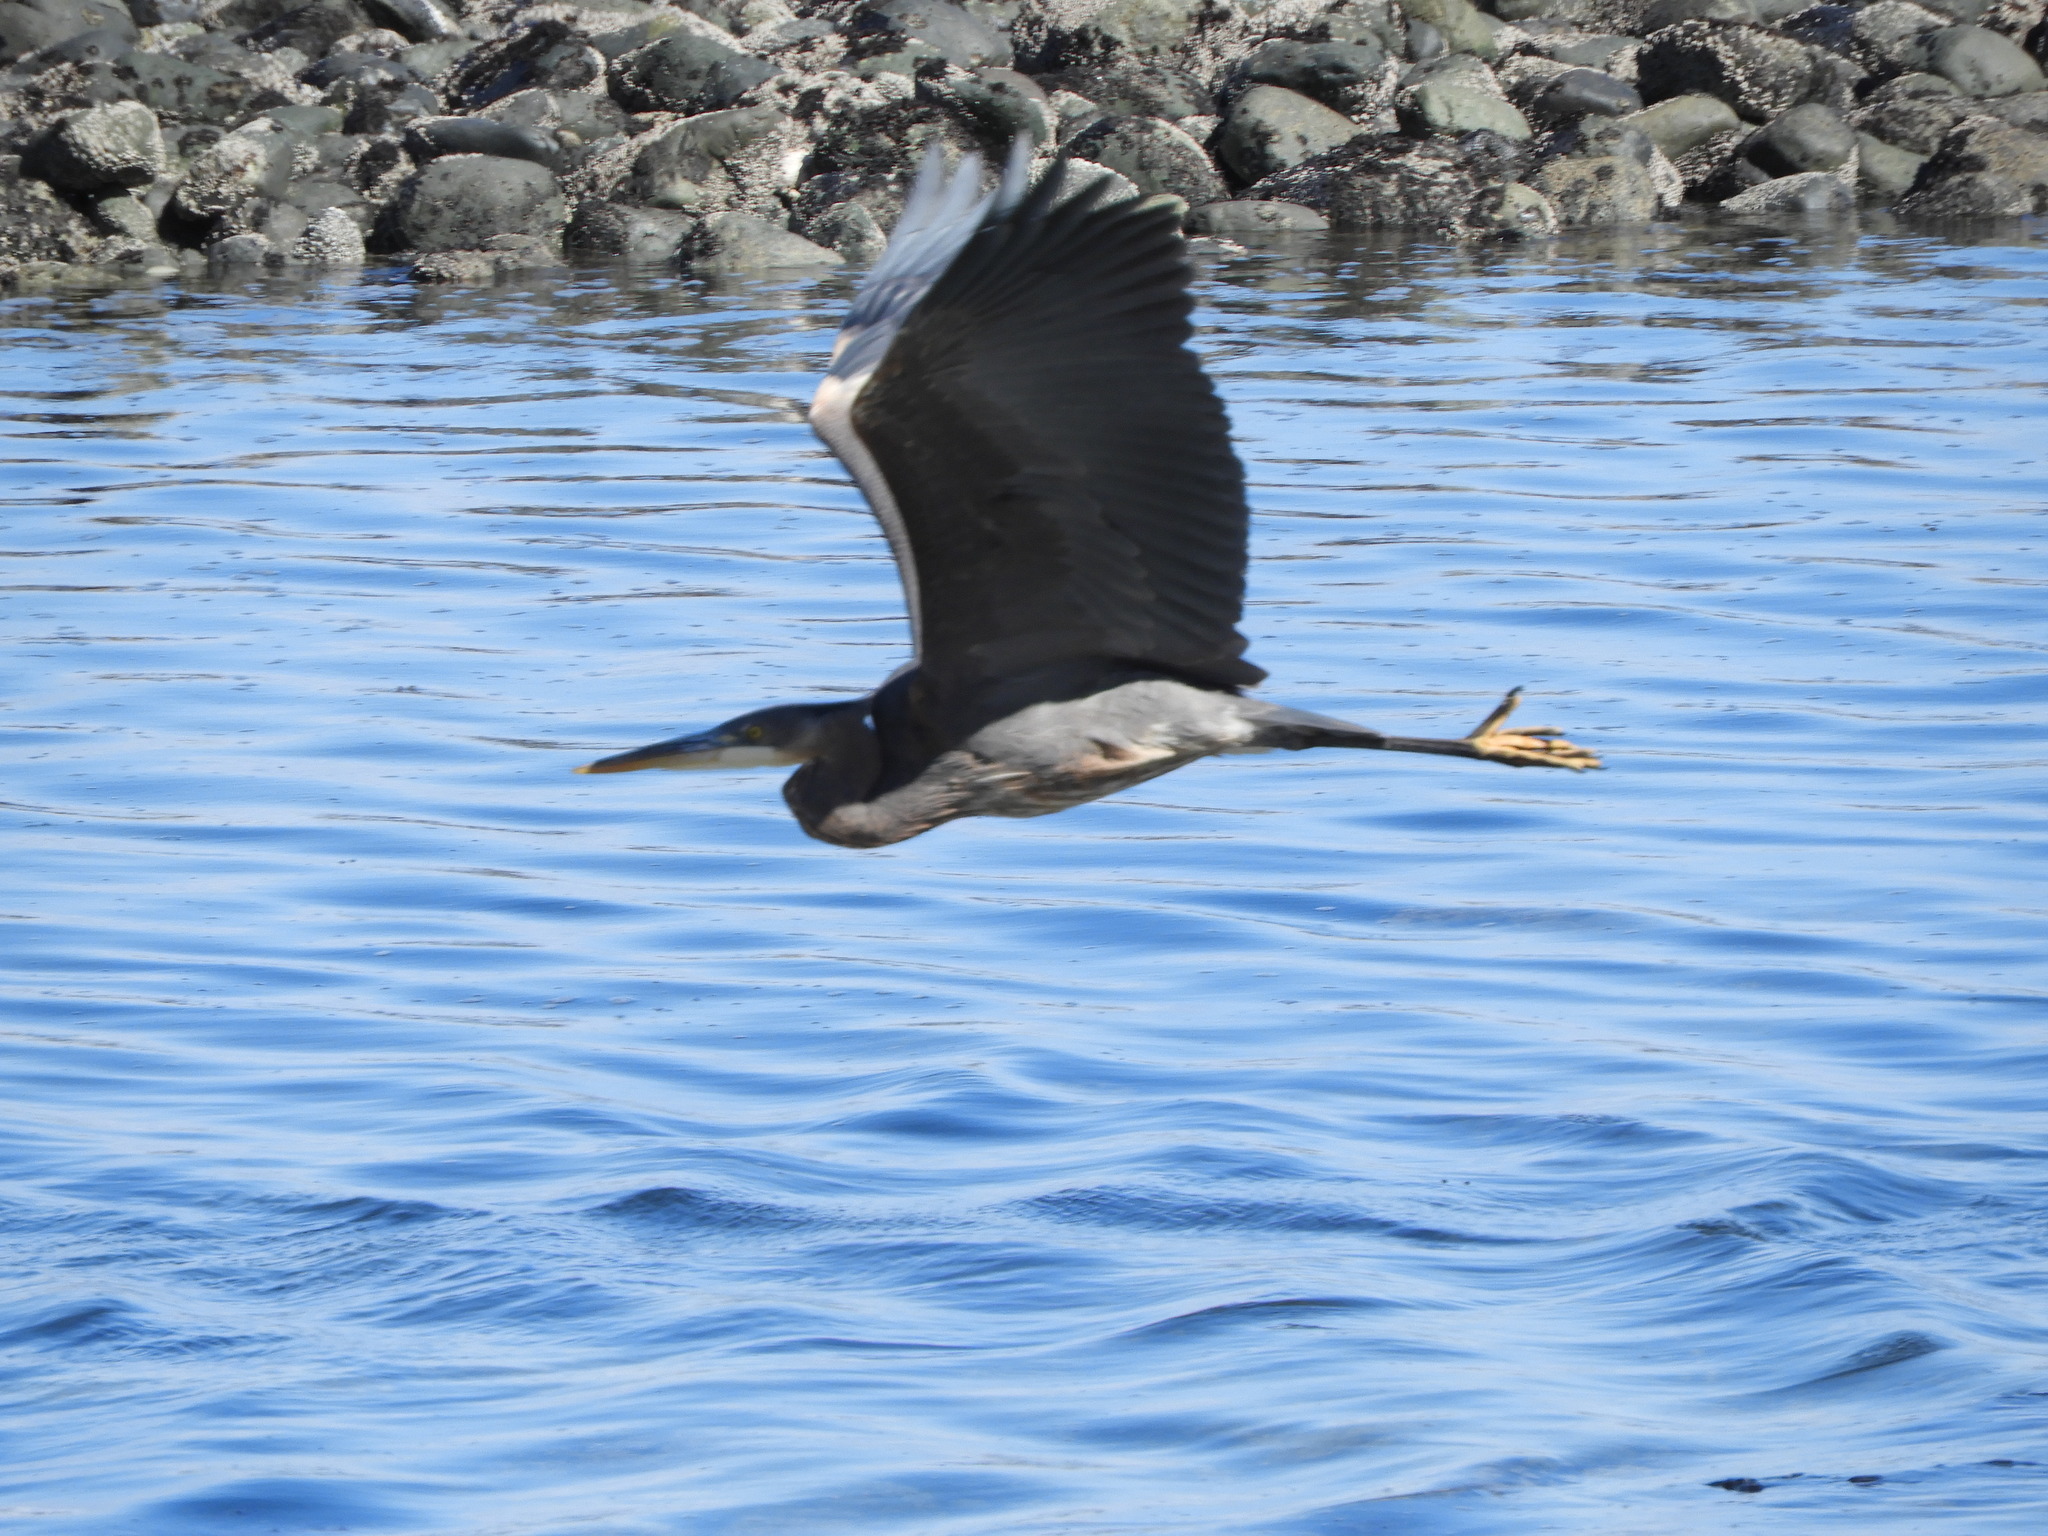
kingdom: Animalia
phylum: Chordata
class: Aves
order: Pelecaniformes
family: Ardeidae
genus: Ardea
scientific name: Ardea herodias
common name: Great blue heron
